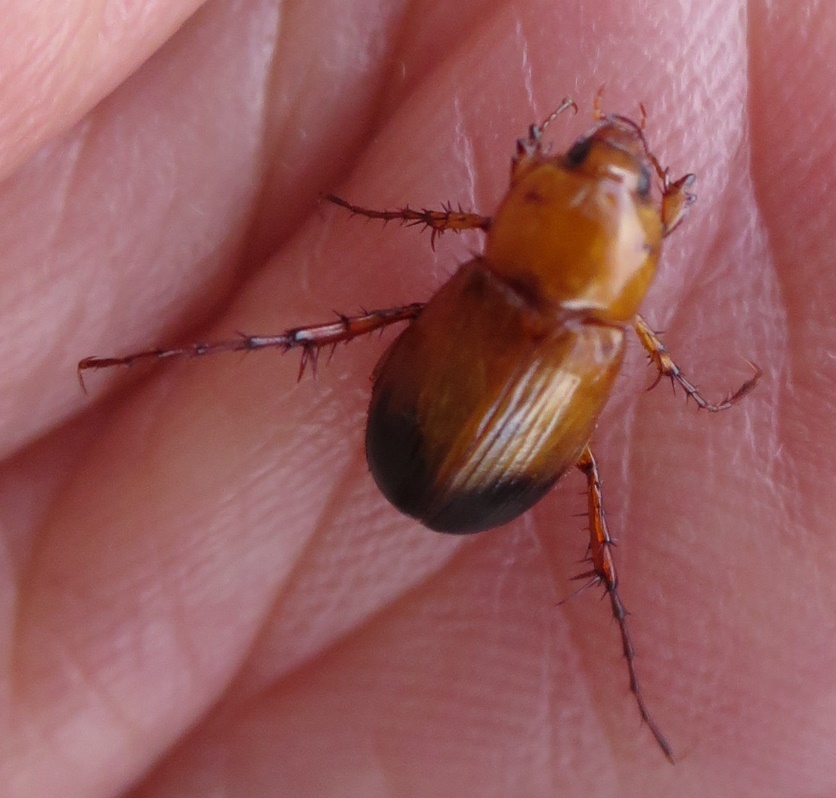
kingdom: Animalia
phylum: Arthropoda
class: Insecta
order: Coleoptera
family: Scarabaeidae
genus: Phyllotocus
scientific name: Phyllotocus macleayi
